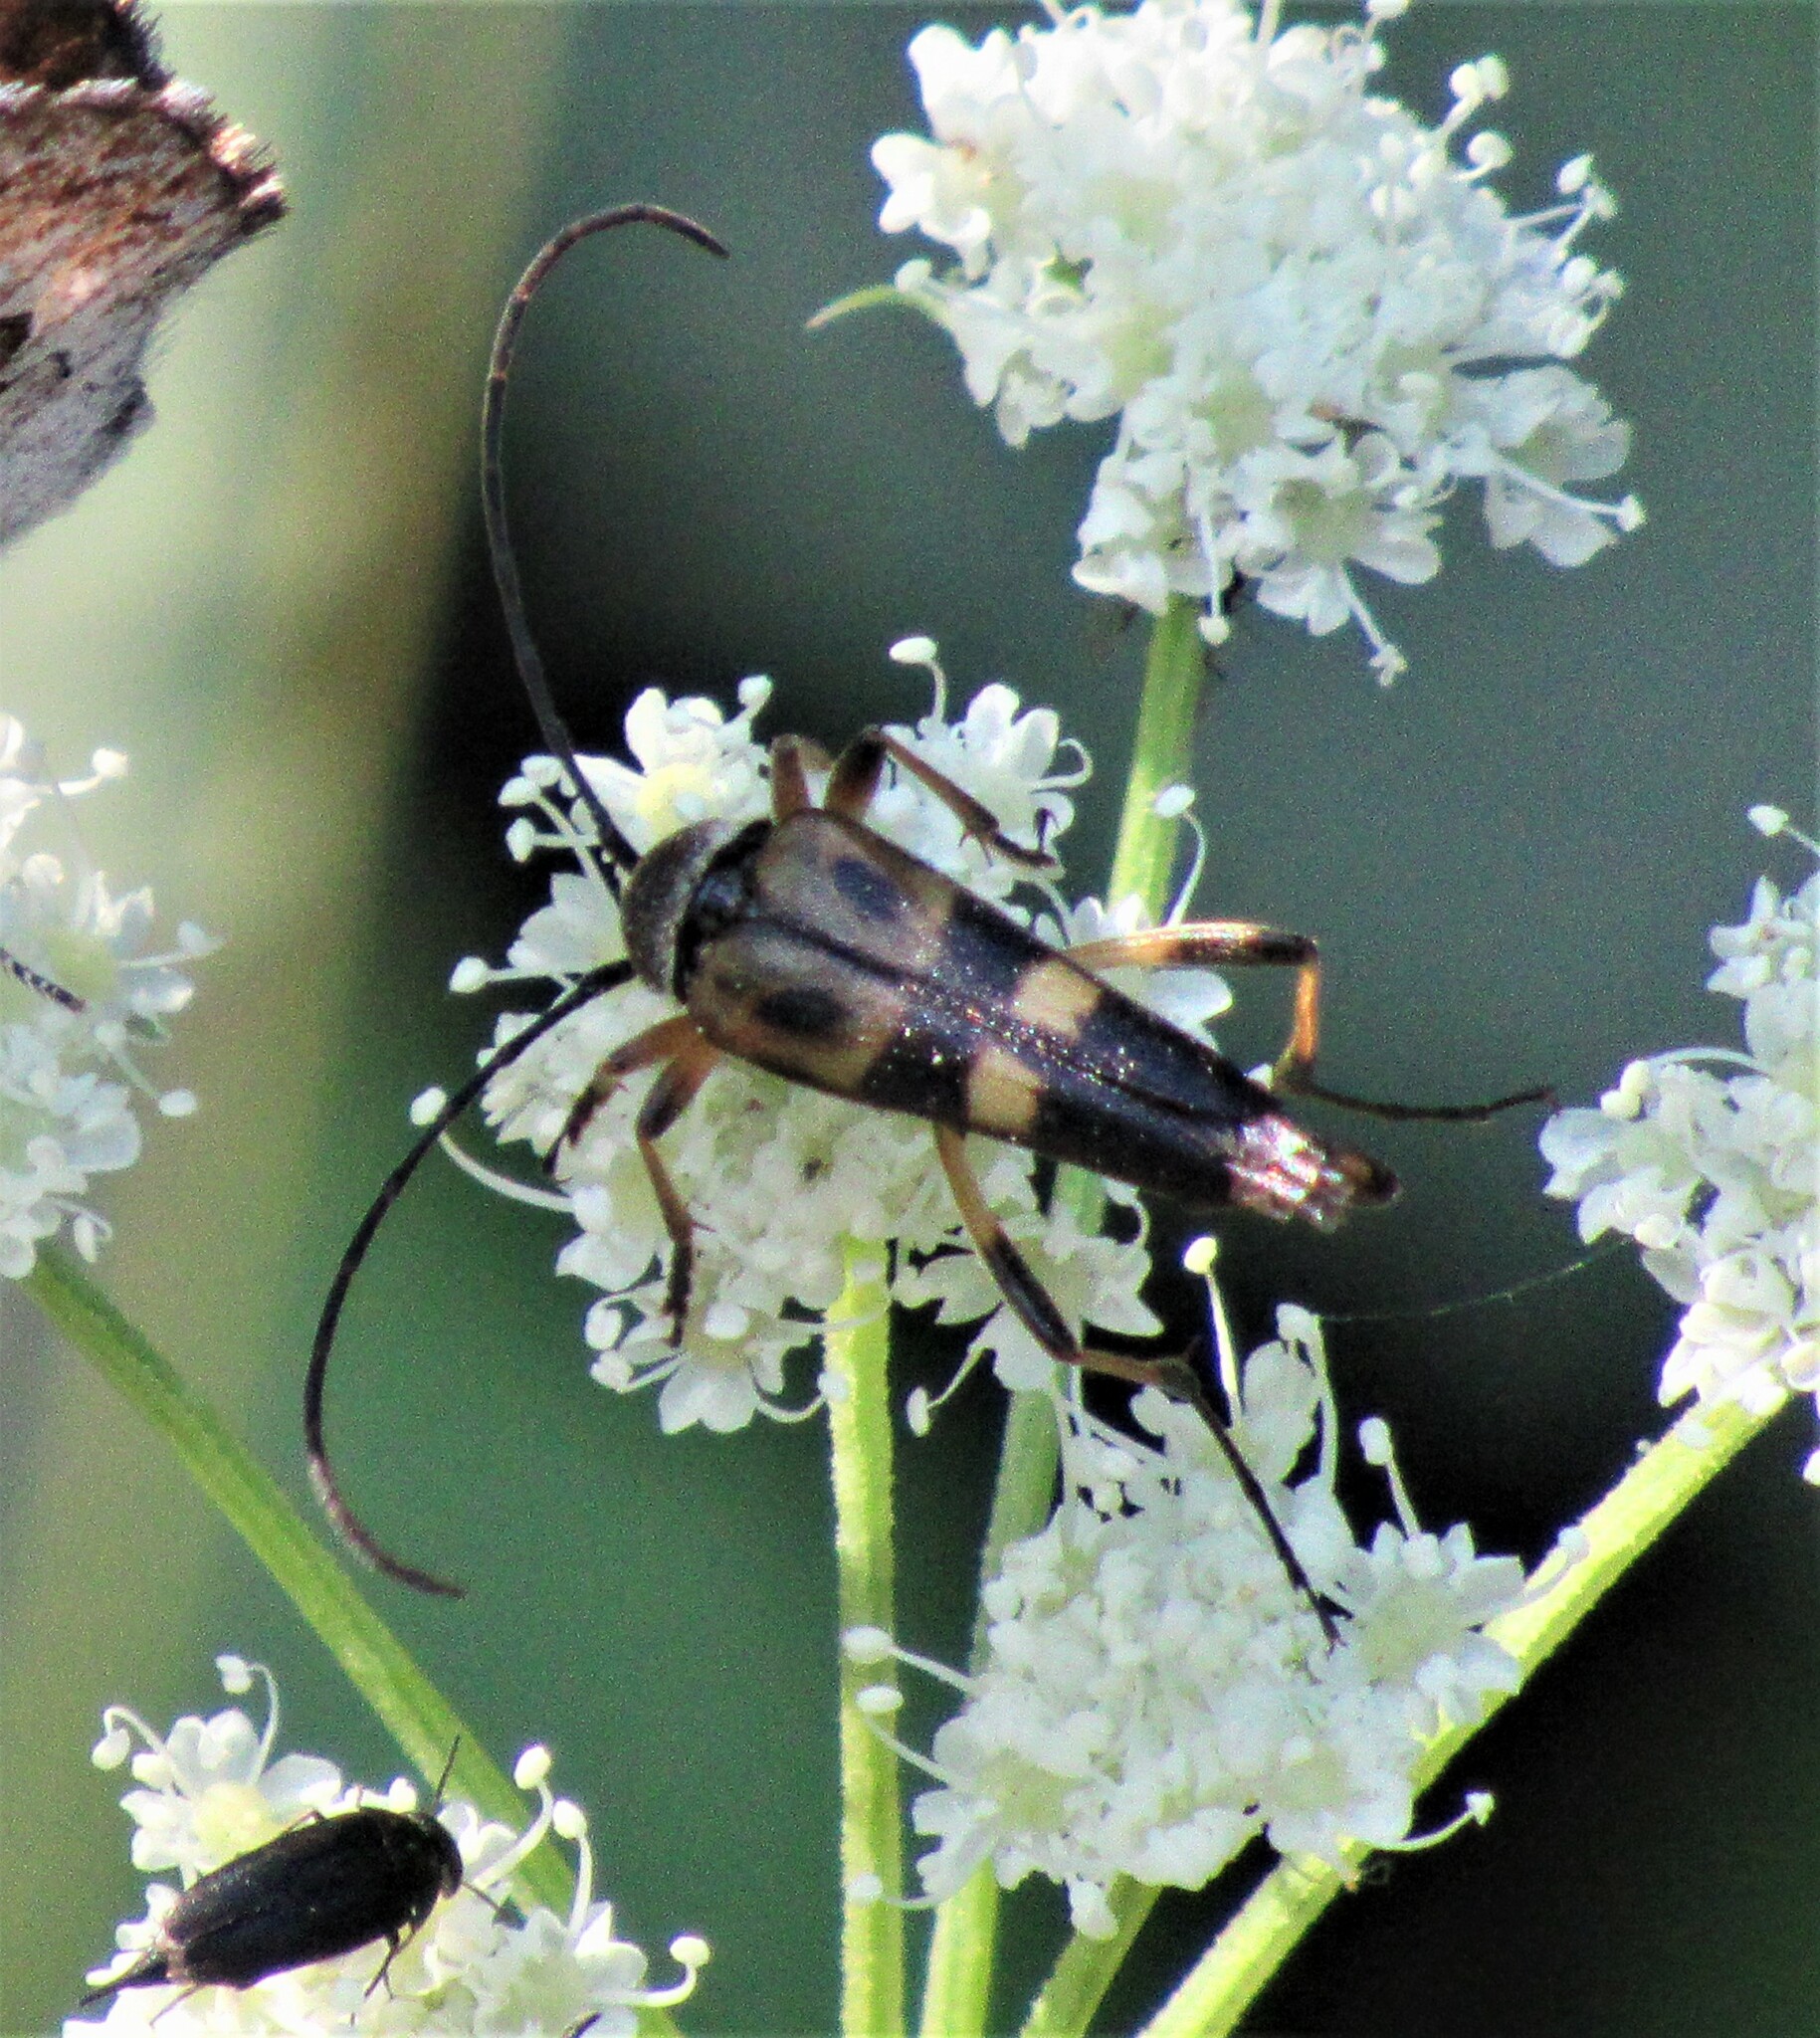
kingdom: Animalia
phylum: Arthropoda
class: Insecta
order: Coleoptera
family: Cerambycidae
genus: Etorofus
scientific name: Etorofus obliteratus
